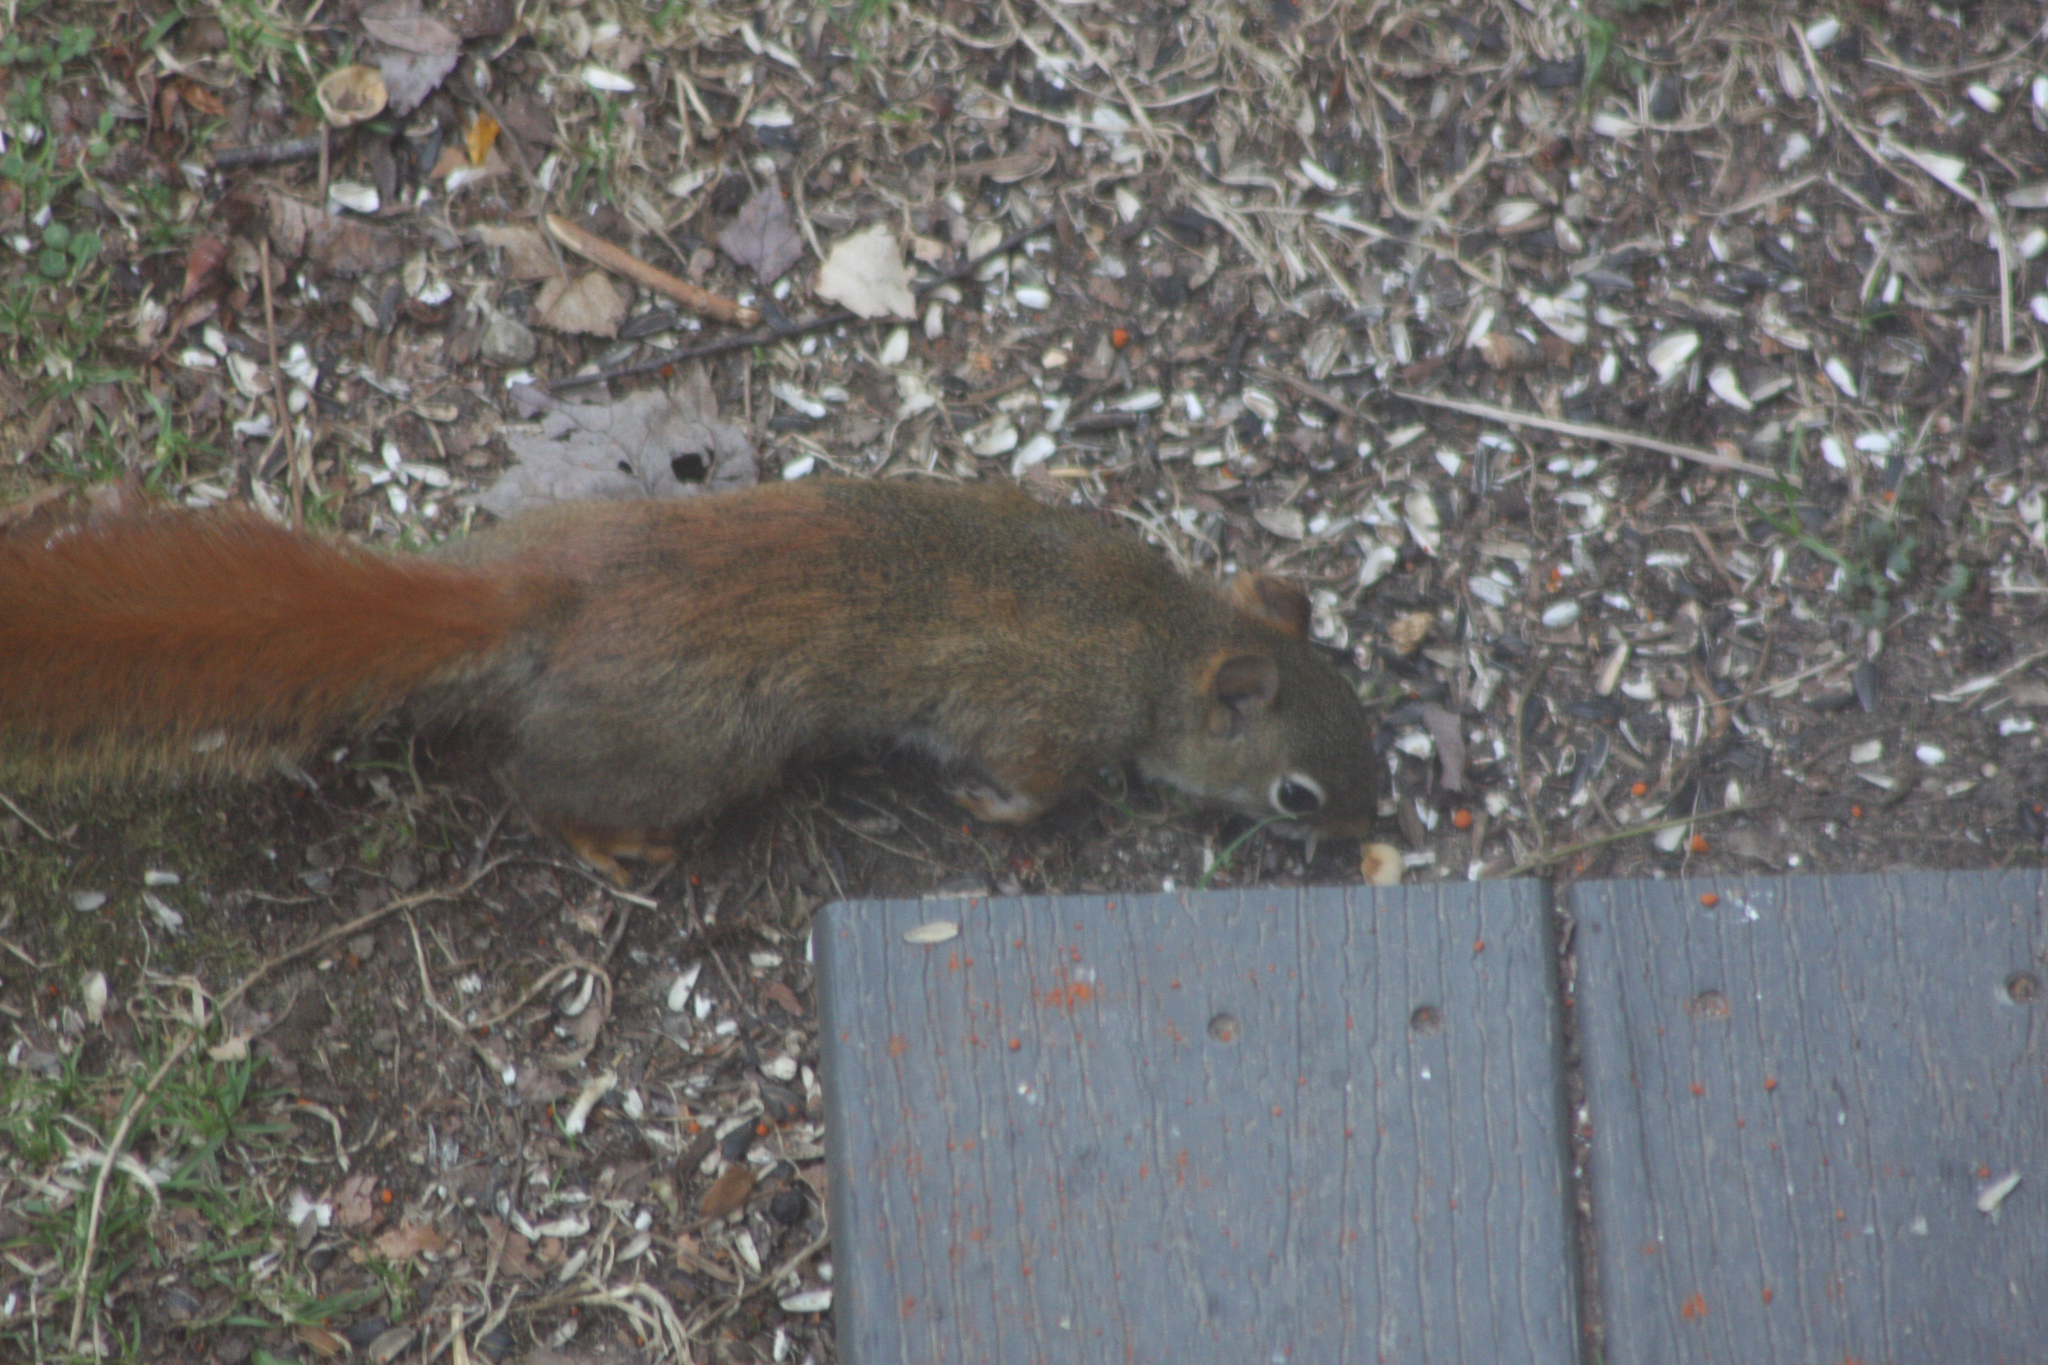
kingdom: Animalia
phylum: Chordata
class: Mammalia
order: Rodentia
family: Sciuridae
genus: Tamiasciurus
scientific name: Tamiasciurus hudsonicus
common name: Red squirrel
